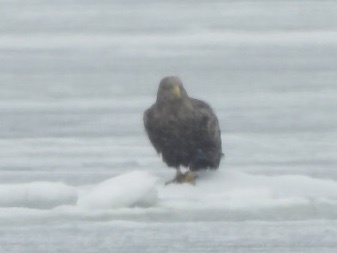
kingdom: Animalia
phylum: Chordata
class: Aves
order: Accipitriformes
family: Accipitridae
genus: Haliaeetus
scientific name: Haliaeetus albicilla
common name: White-tailed eagle
